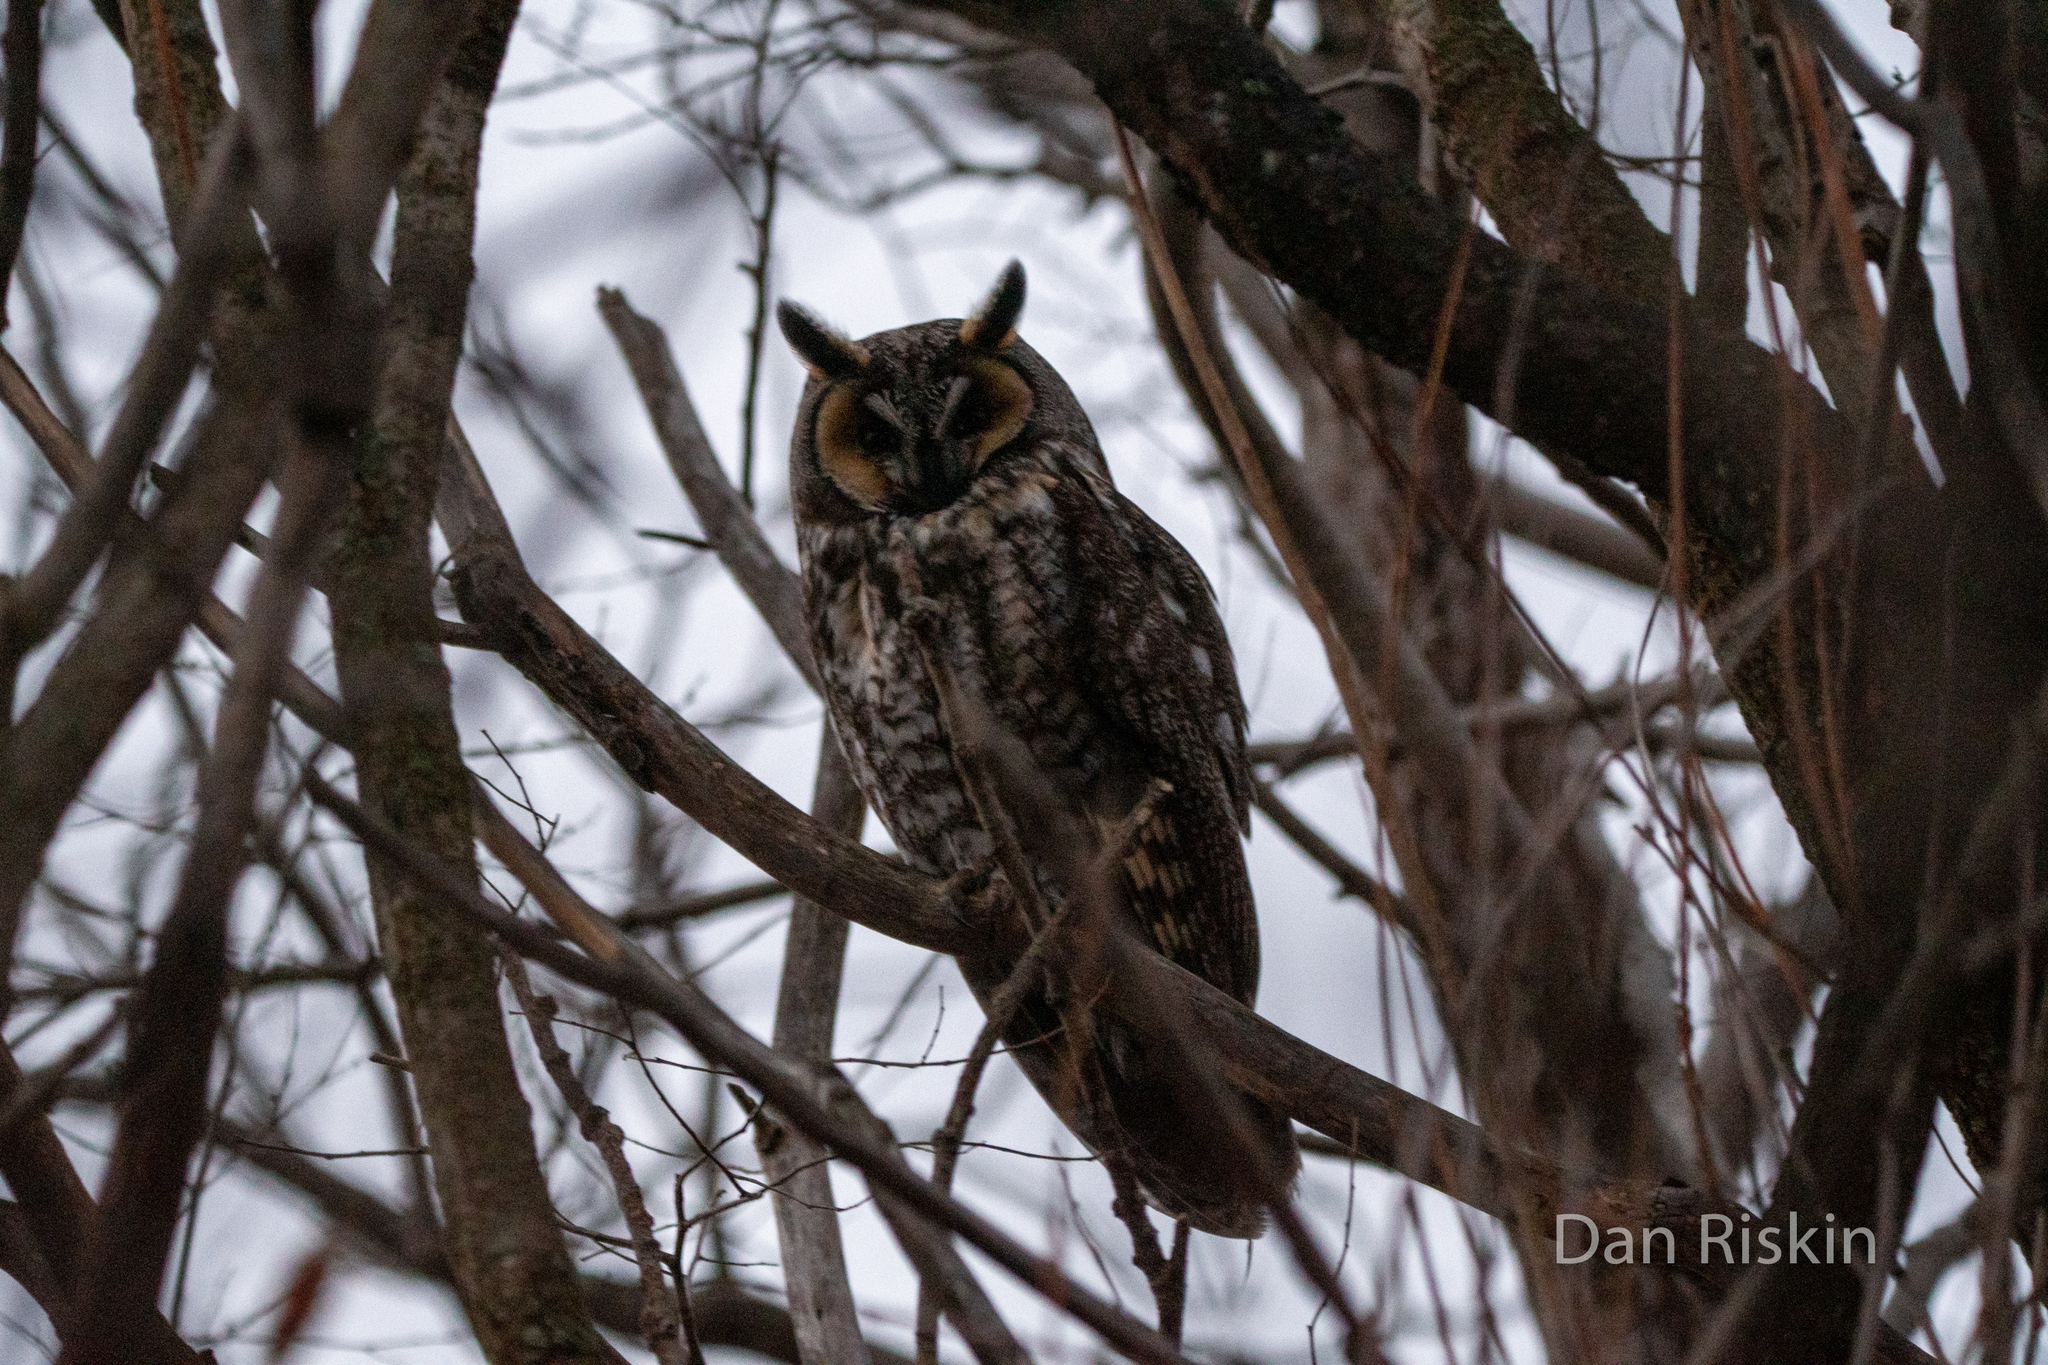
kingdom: Animalia
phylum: Chordata
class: Aves
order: Strigiformes
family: Strigidae
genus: Asio
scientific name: Asio otus
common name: Long-eared owl
